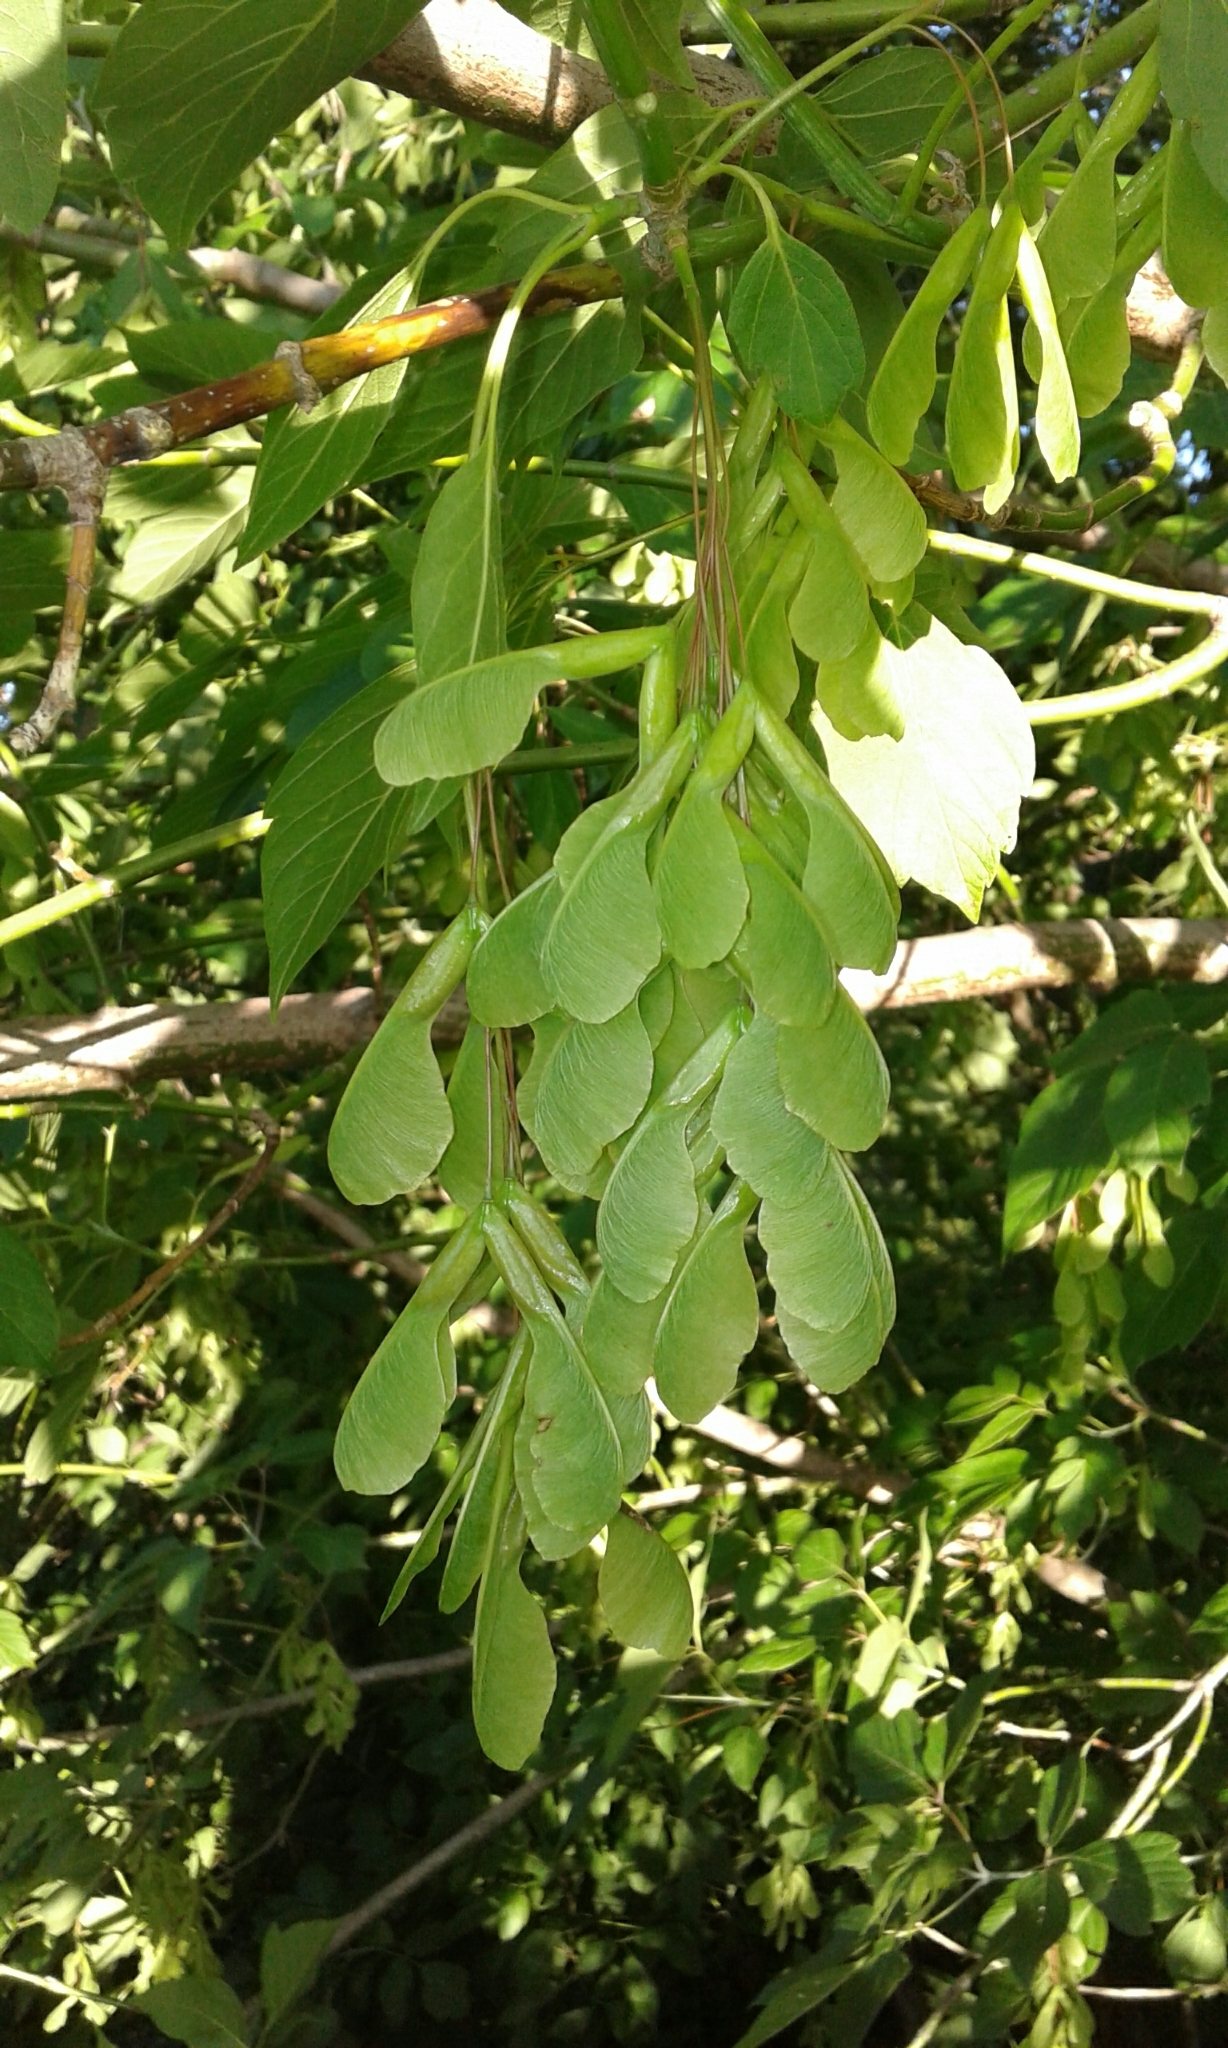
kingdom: Plantae
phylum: Tracheophyta
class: Magnoliopsida
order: Sapindales
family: Sapindaceae
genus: Acer
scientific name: Acer negundo
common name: Ashleaf maple
